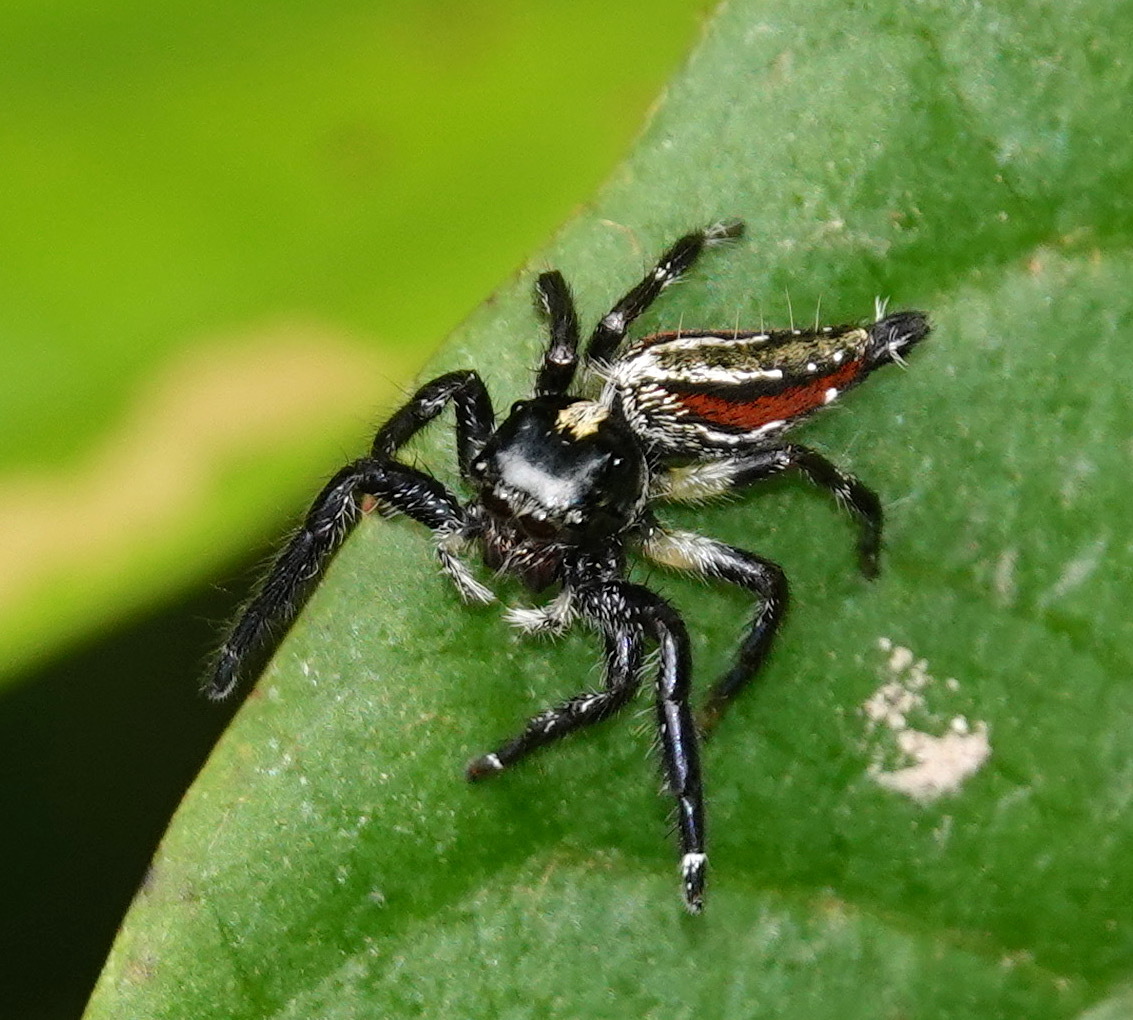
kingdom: Animalia
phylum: Arthropoda
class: Arachnida
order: Araneae
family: Salticidae
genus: Hyllus
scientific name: Hyllus keratodes
